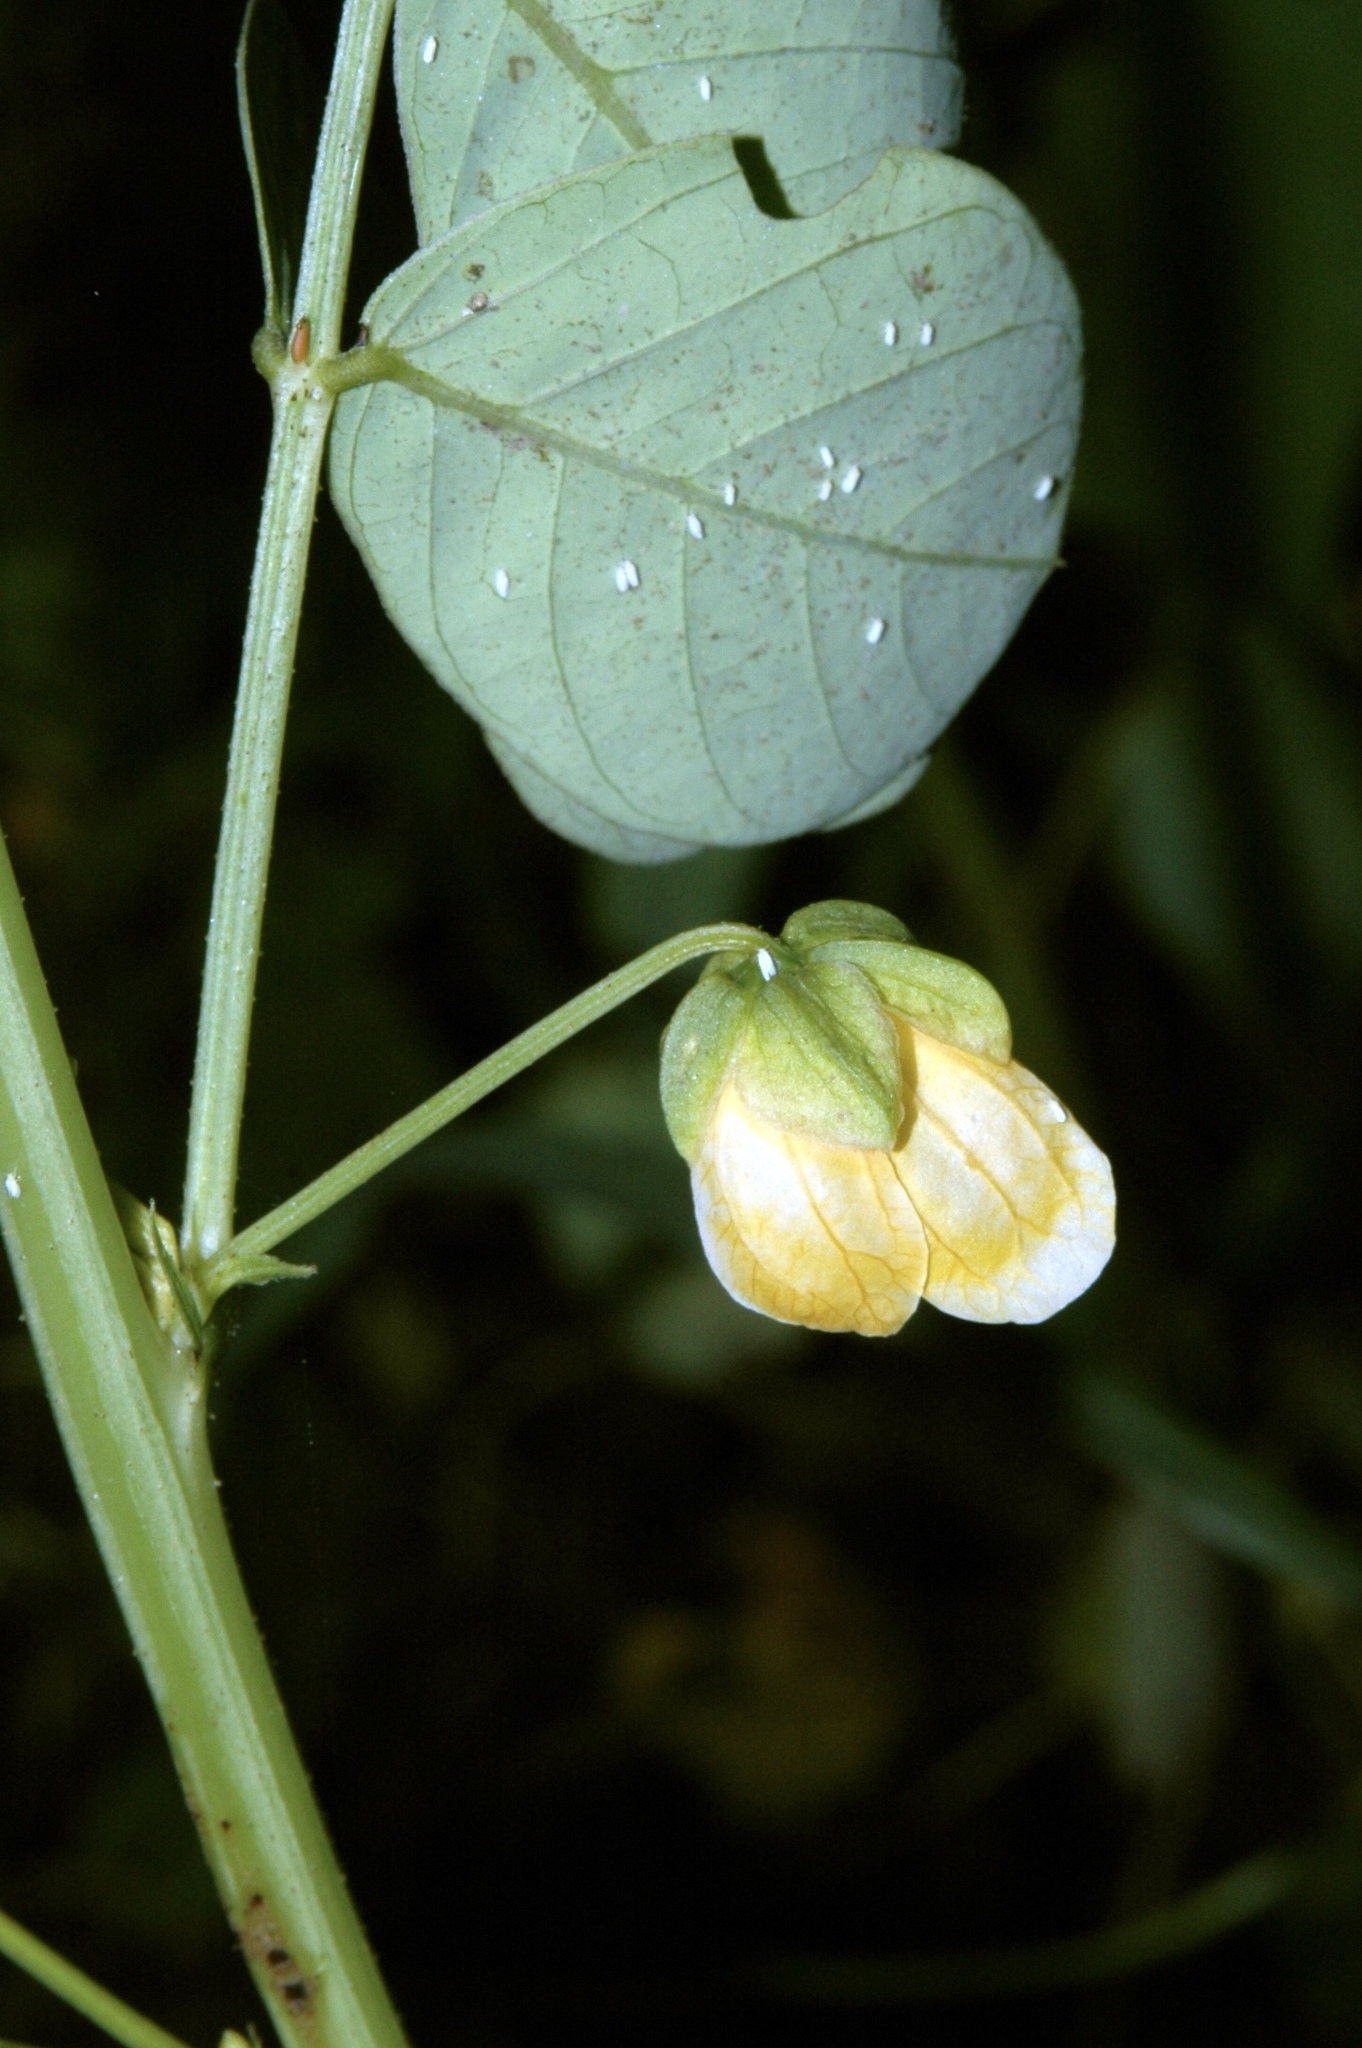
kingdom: Plantae
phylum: Tracheophyta
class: Magnoliopsida
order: Fabales
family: Fabaceae
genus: Senna
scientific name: Senna obtusifolia
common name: Java-bean
